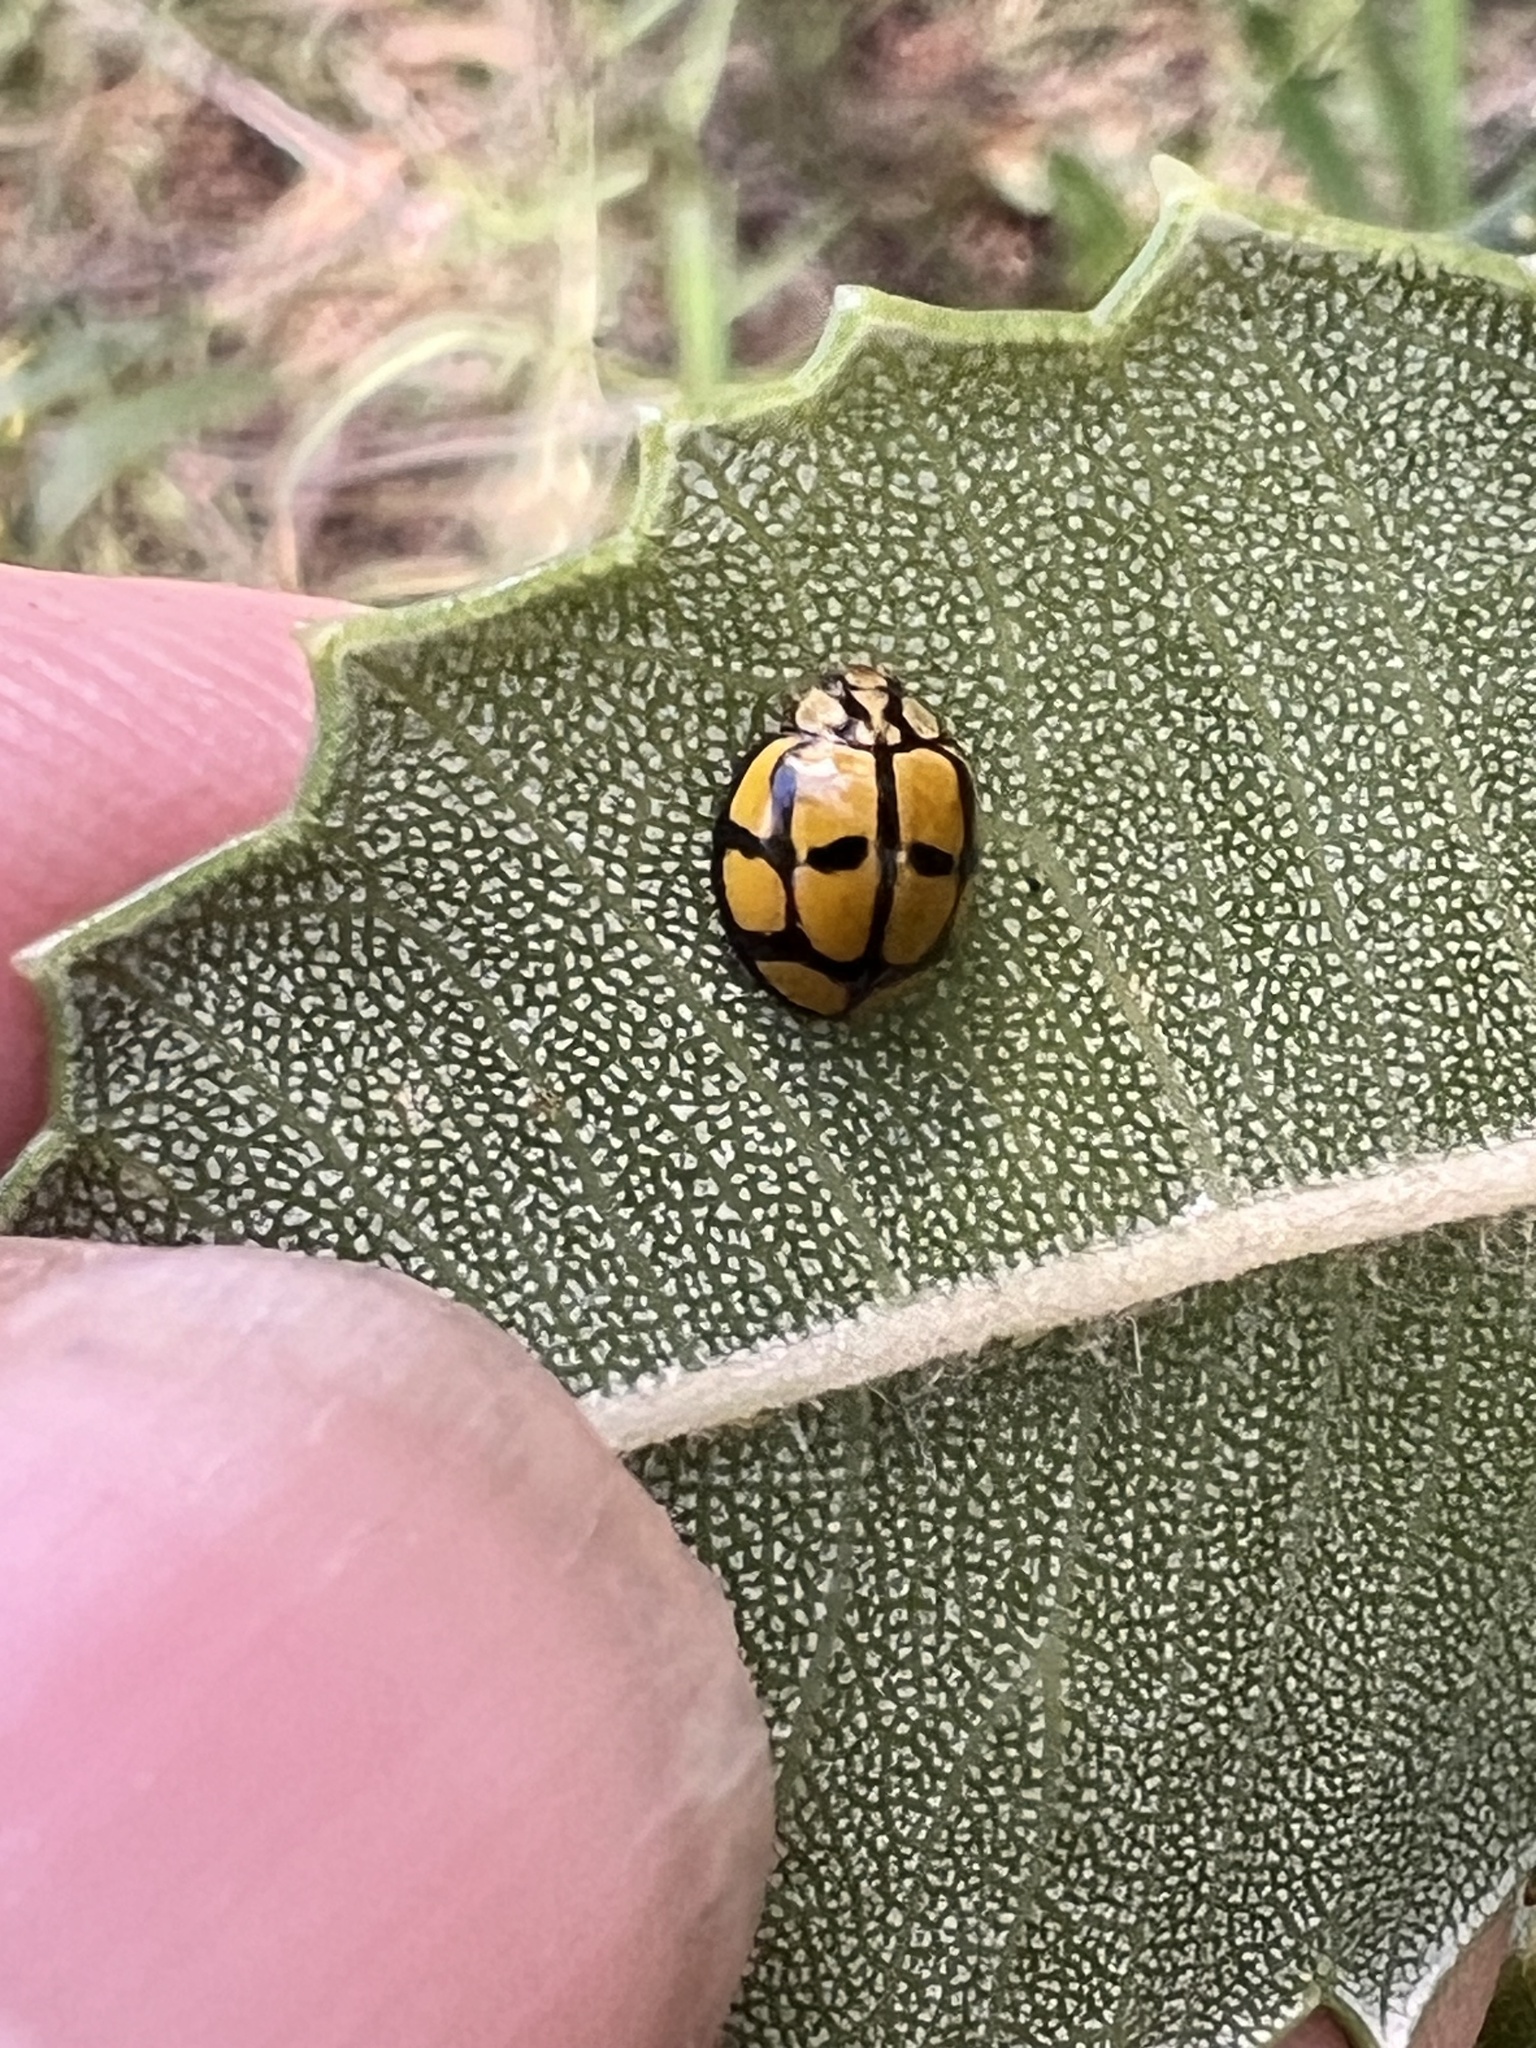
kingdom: Animalia
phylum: Arthropoda
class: Insecta
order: Coleoptera
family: Coccinellidae
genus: Harmonia
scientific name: Harmonia
